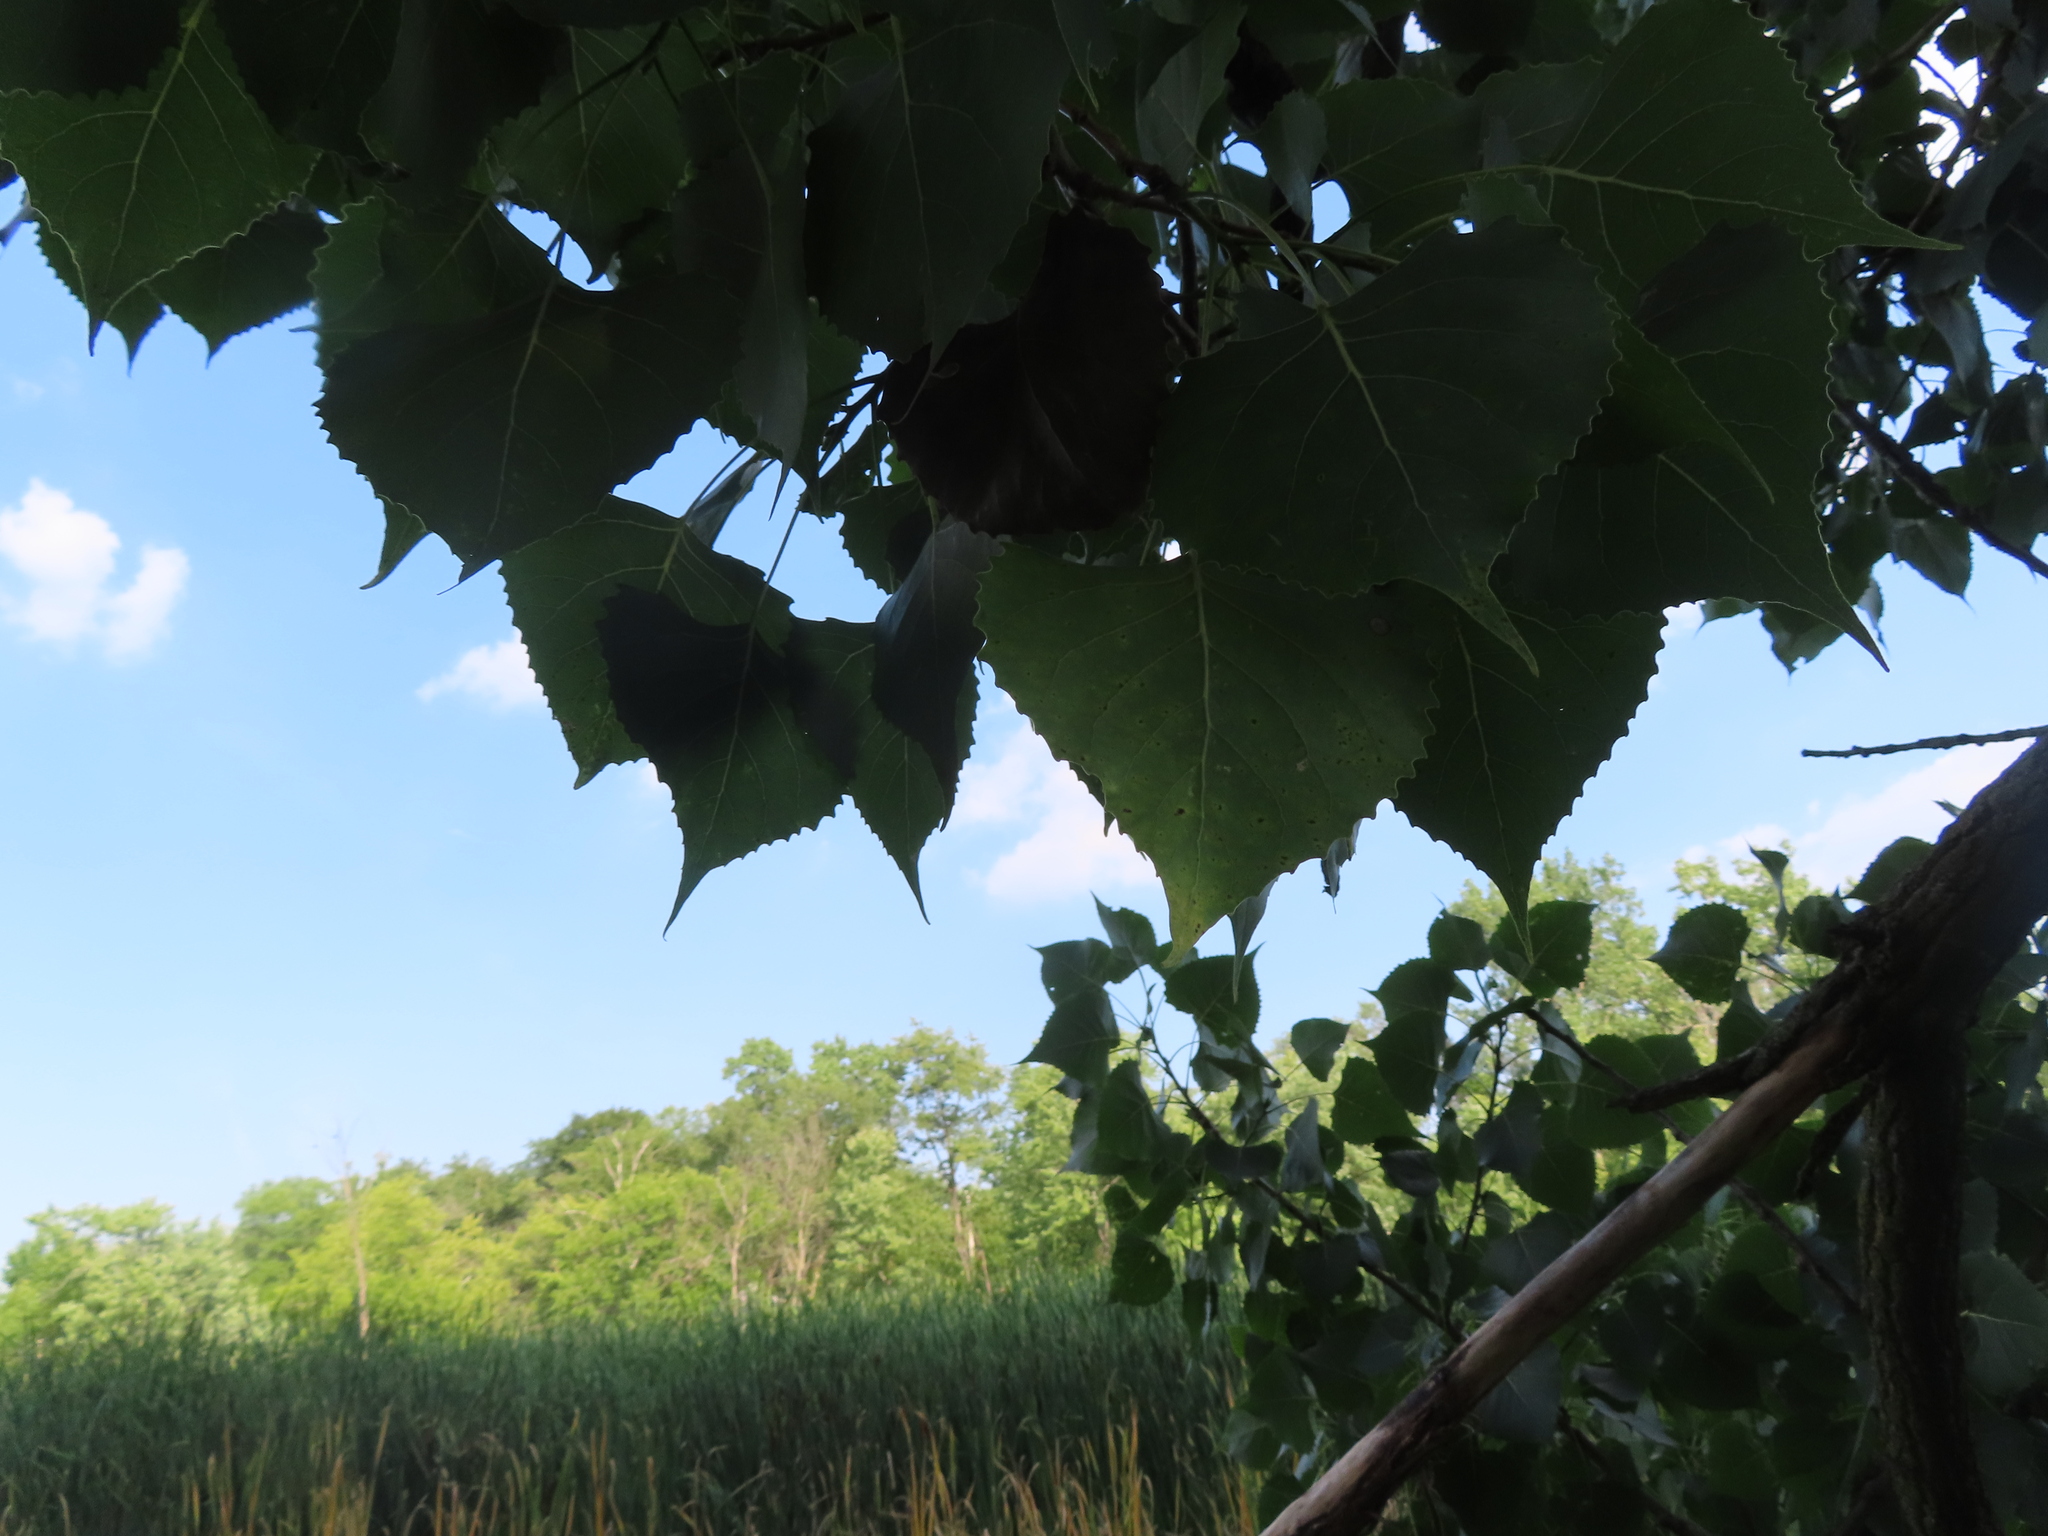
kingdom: Plantae
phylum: Tracheophyta
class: Magnoliopsida
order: Malpighiales
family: Salicaceae
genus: Populus
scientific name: Populus deltoides
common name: Eastern cottonwood
